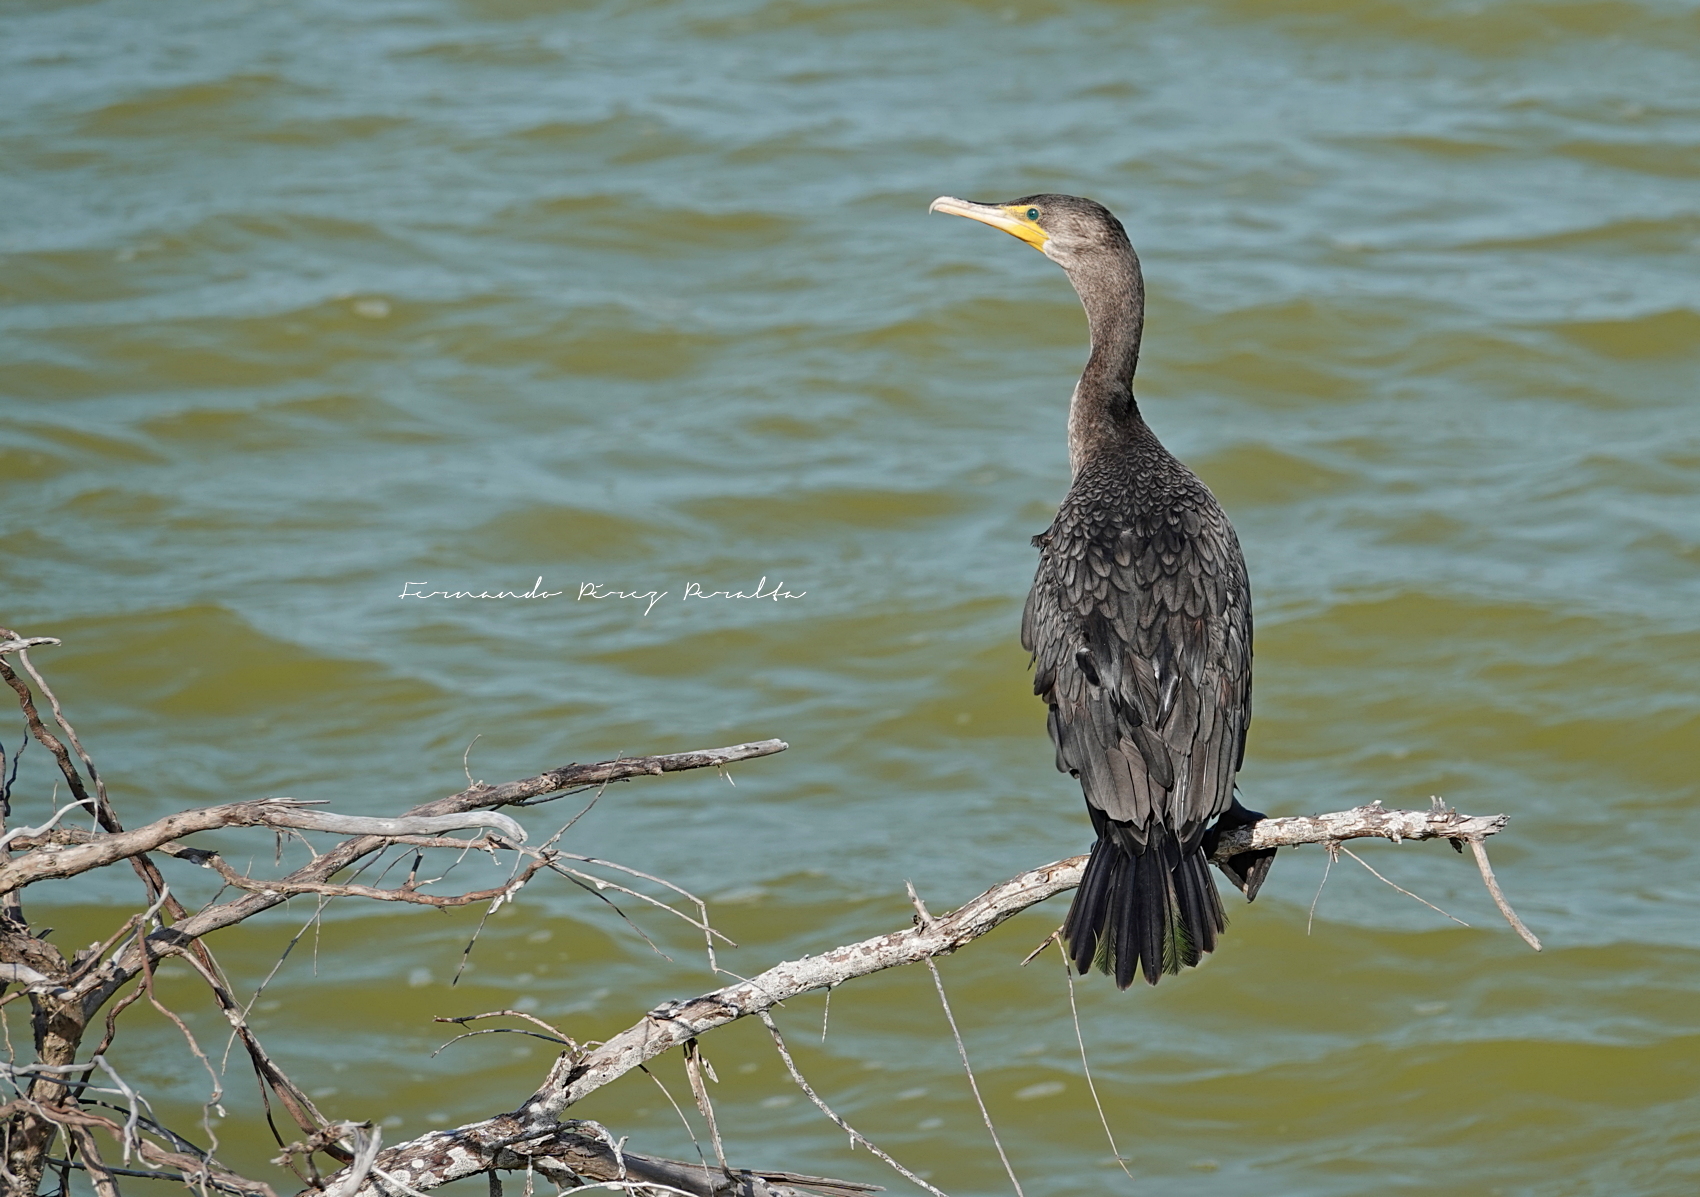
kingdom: Animalia
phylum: Chordata
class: Aves
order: Suliformes
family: Phalacrocoracidae
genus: Phalacrocorax
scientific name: Phalacrocorax brasilianus
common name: Neotropic cormorant
